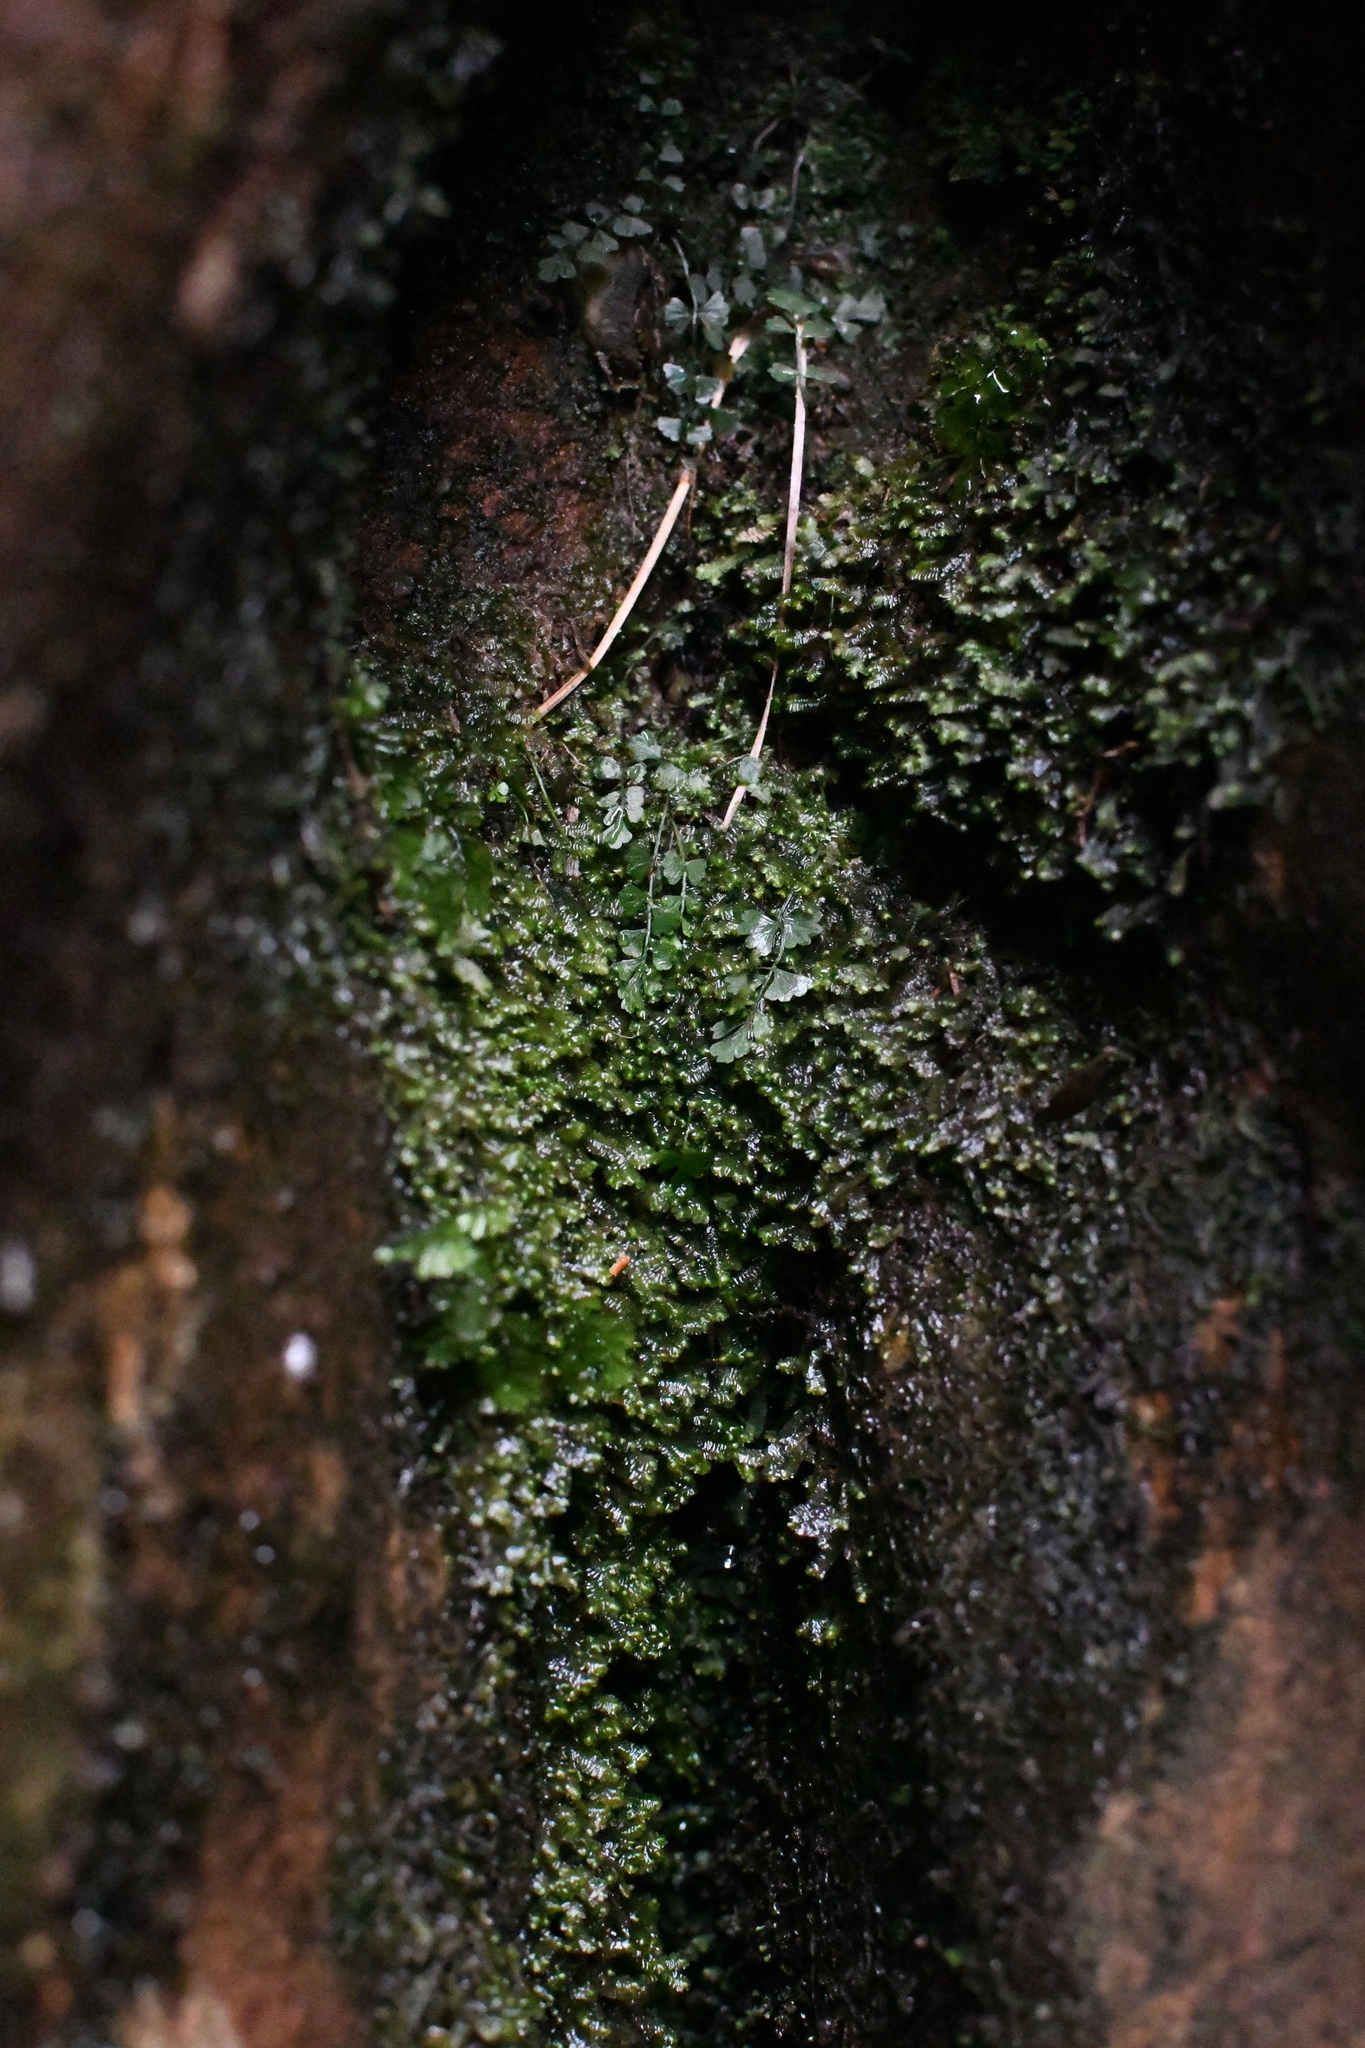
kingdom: Plantae
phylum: Tracheophyta
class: Polypodiopsida
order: Polypodiales
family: Aspleniaceae
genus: Asplenium
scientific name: Asplenium flabellifolium
